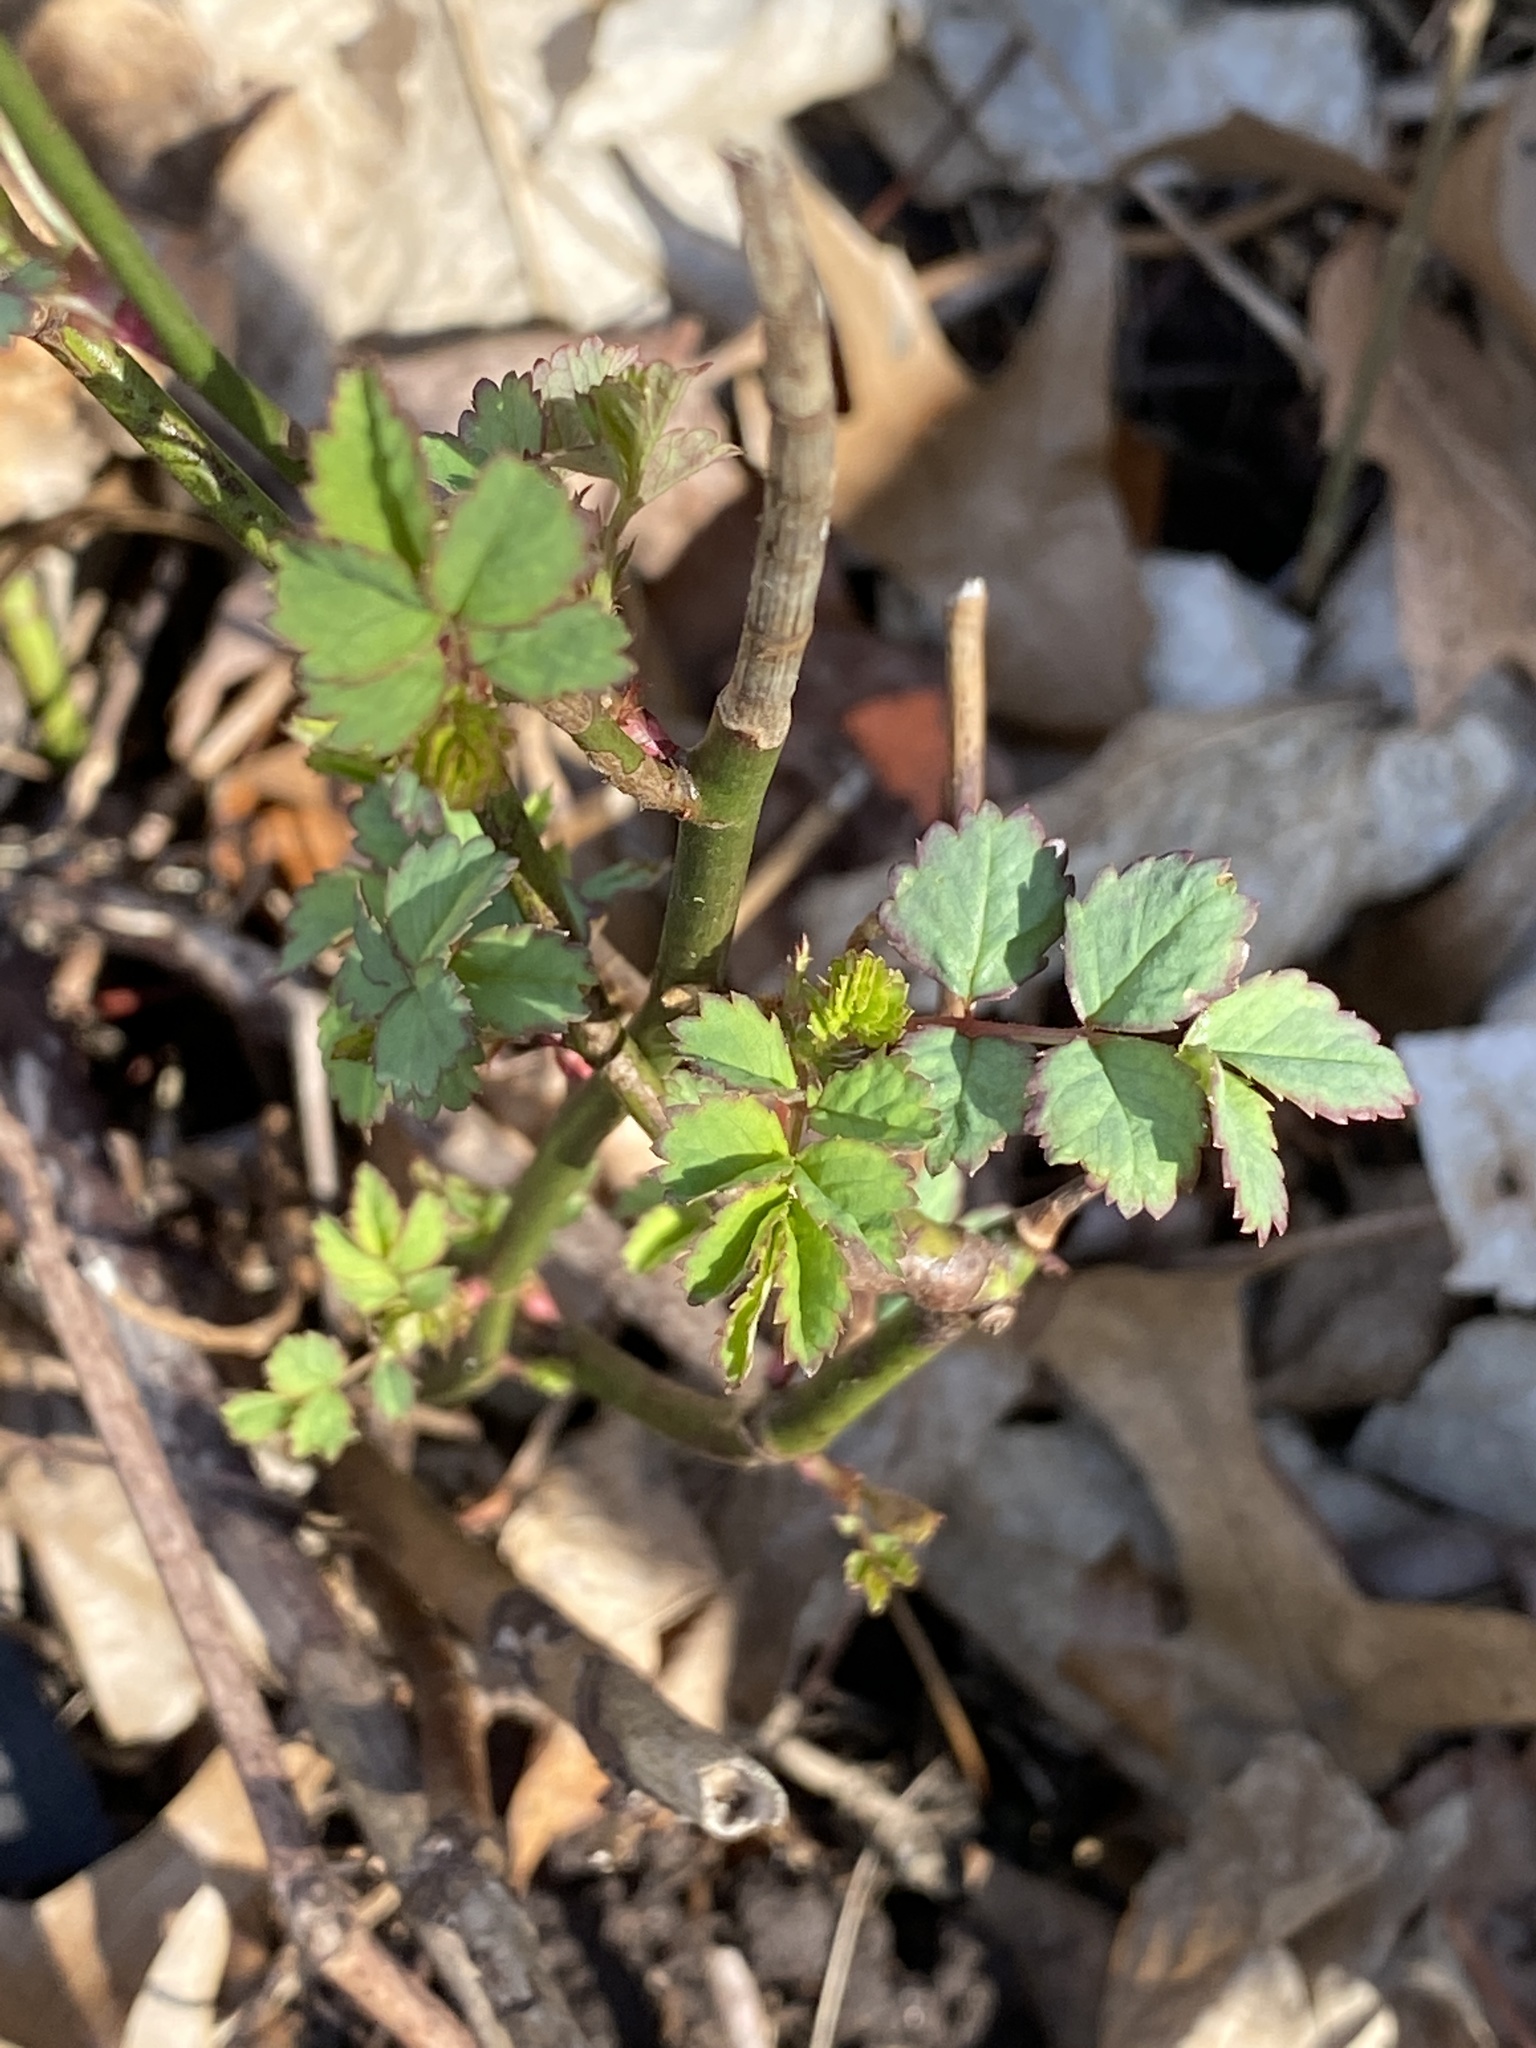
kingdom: Plantae
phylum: Tracheophyta
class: Magnoliopsida
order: Rosales
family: Rosaceae
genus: Rosa
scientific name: Rosa multiflora
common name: Multiflora rose
